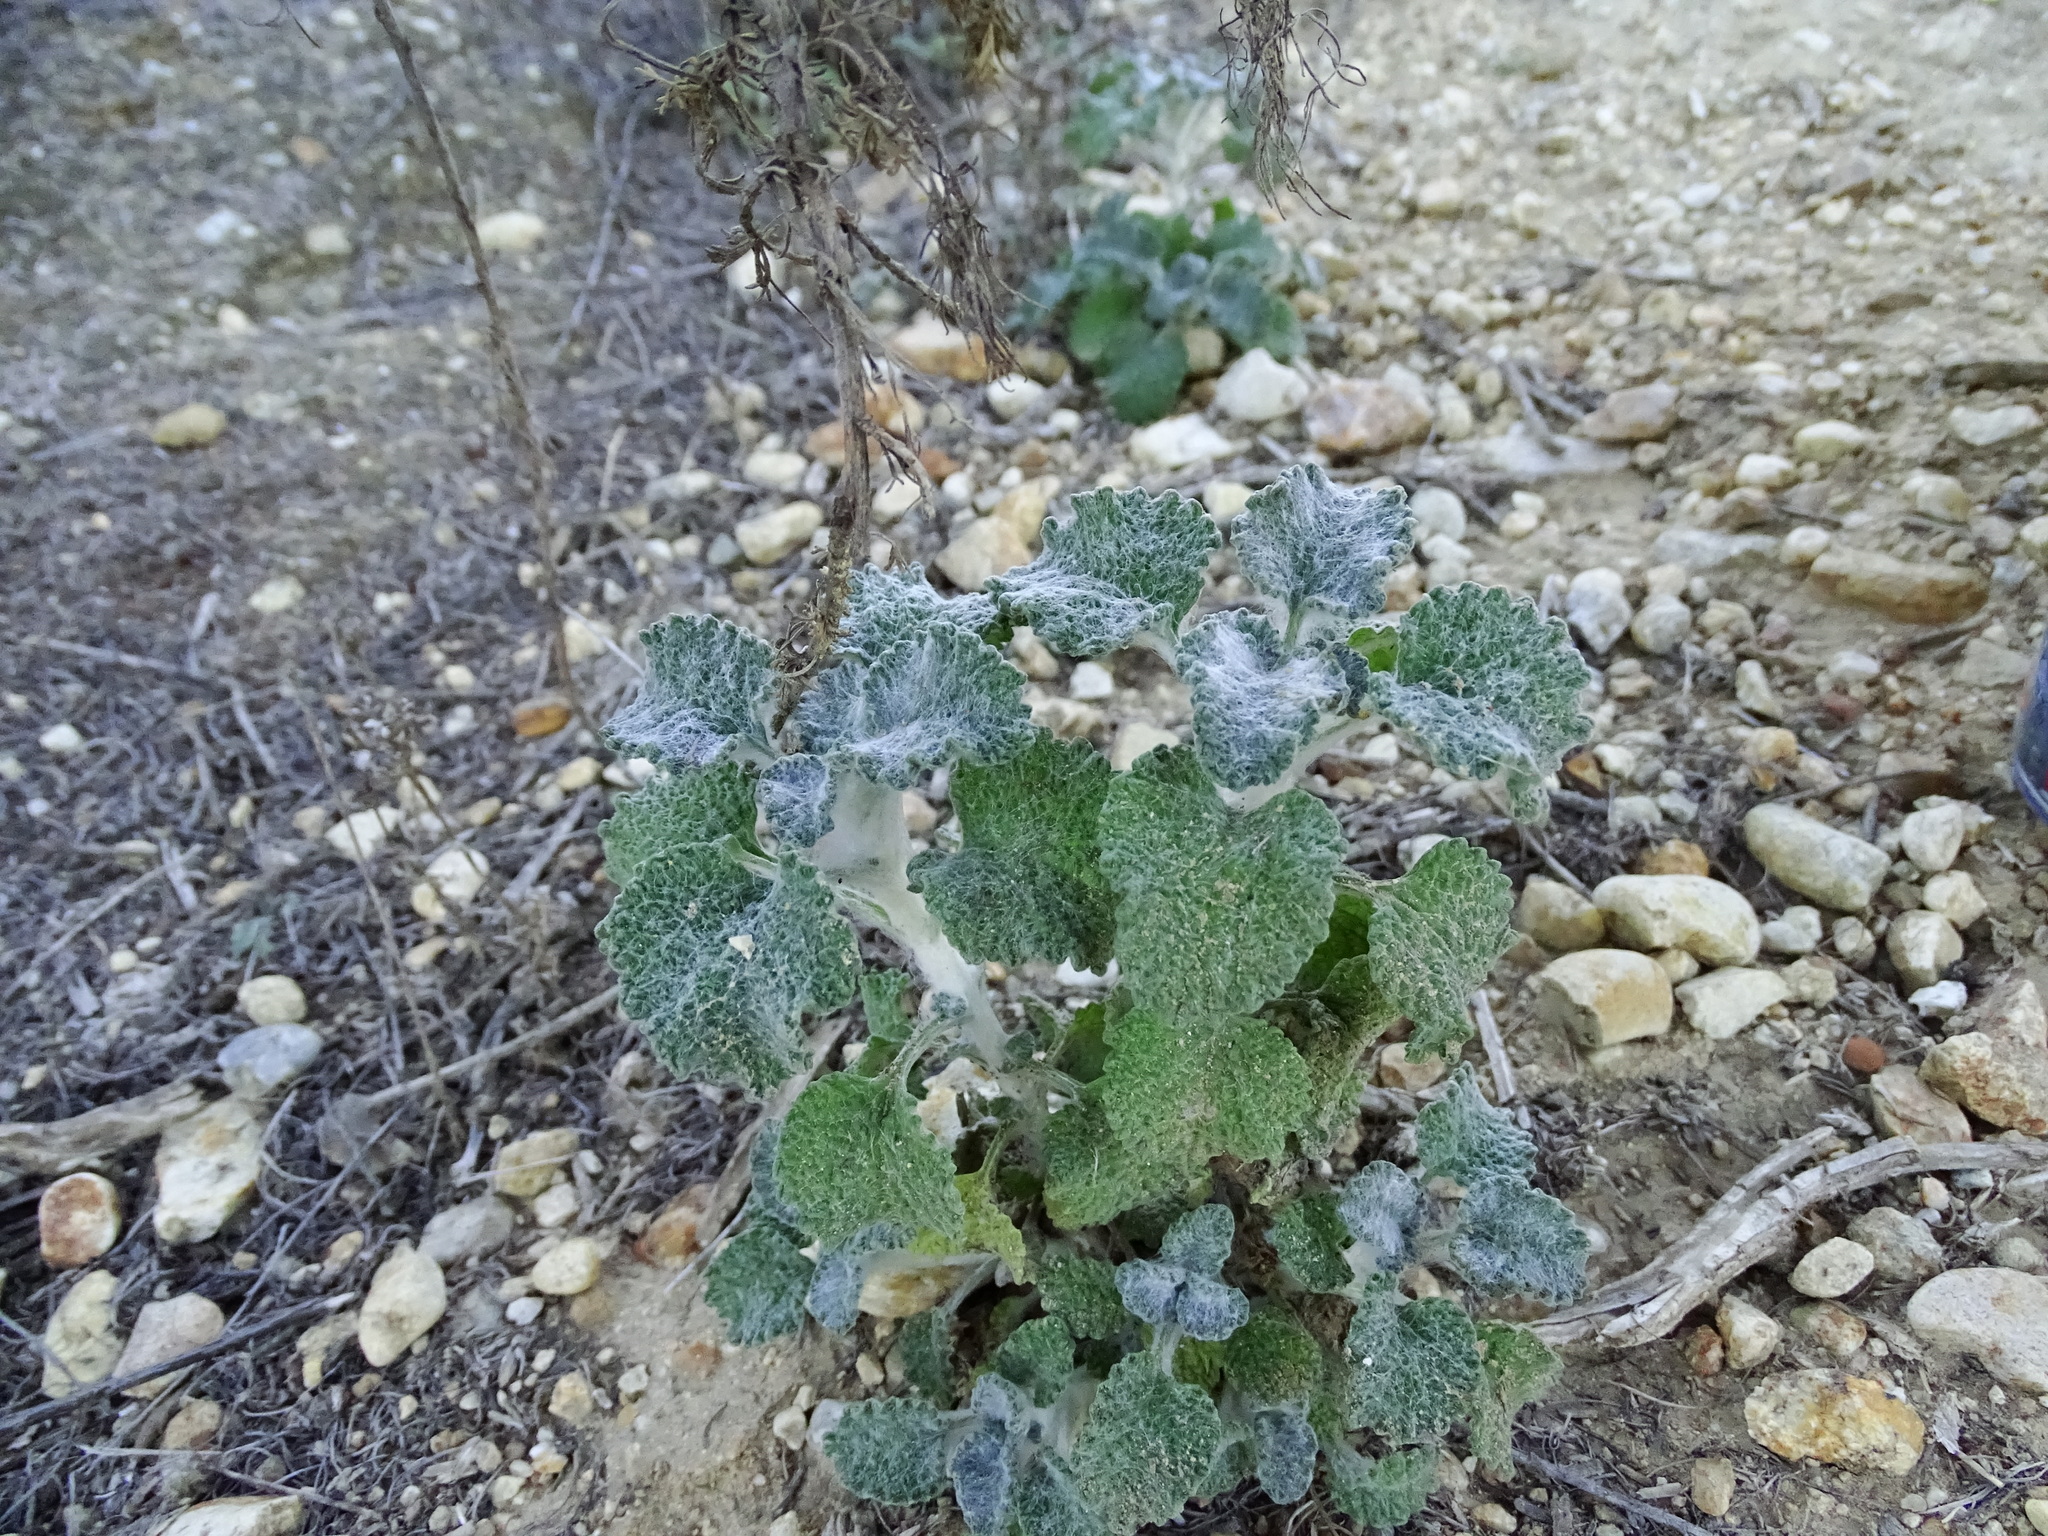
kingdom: Plantae
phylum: Tracheophyta
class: Magnoliopsida
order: Lamiales
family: Lamiaceae
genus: Marrubium
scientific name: Marrubium vulgare
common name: Horehound
